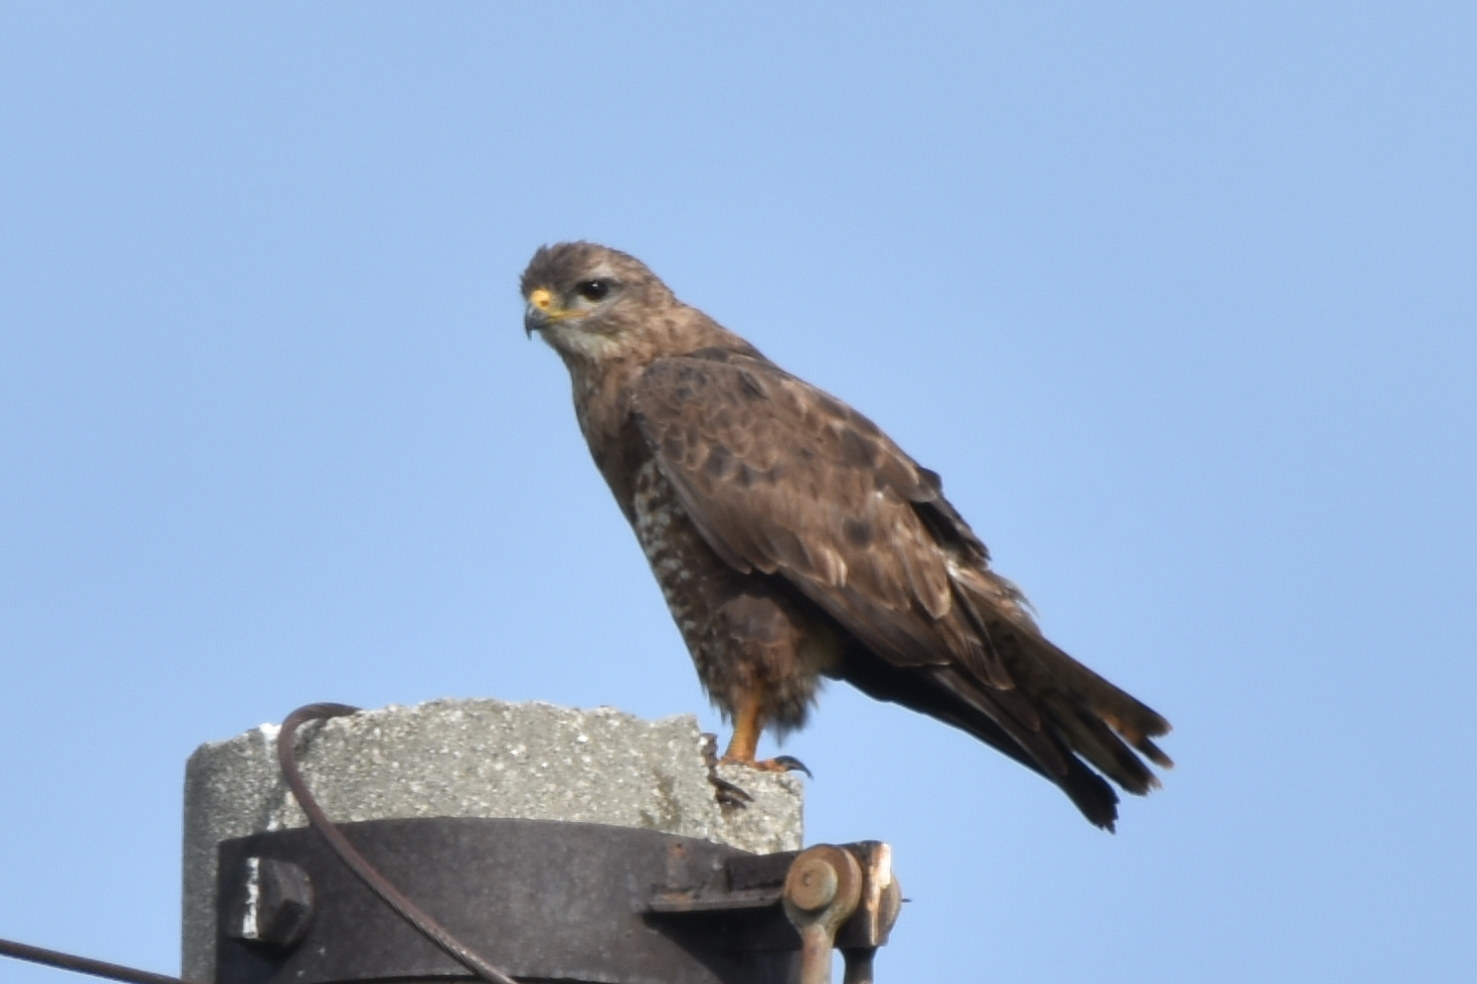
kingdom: Animalia
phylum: Chordata
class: Aves
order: Accipitriformes
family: Accipitridae
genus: Buteo
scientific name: Buteo buteo
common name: Common buzzard
